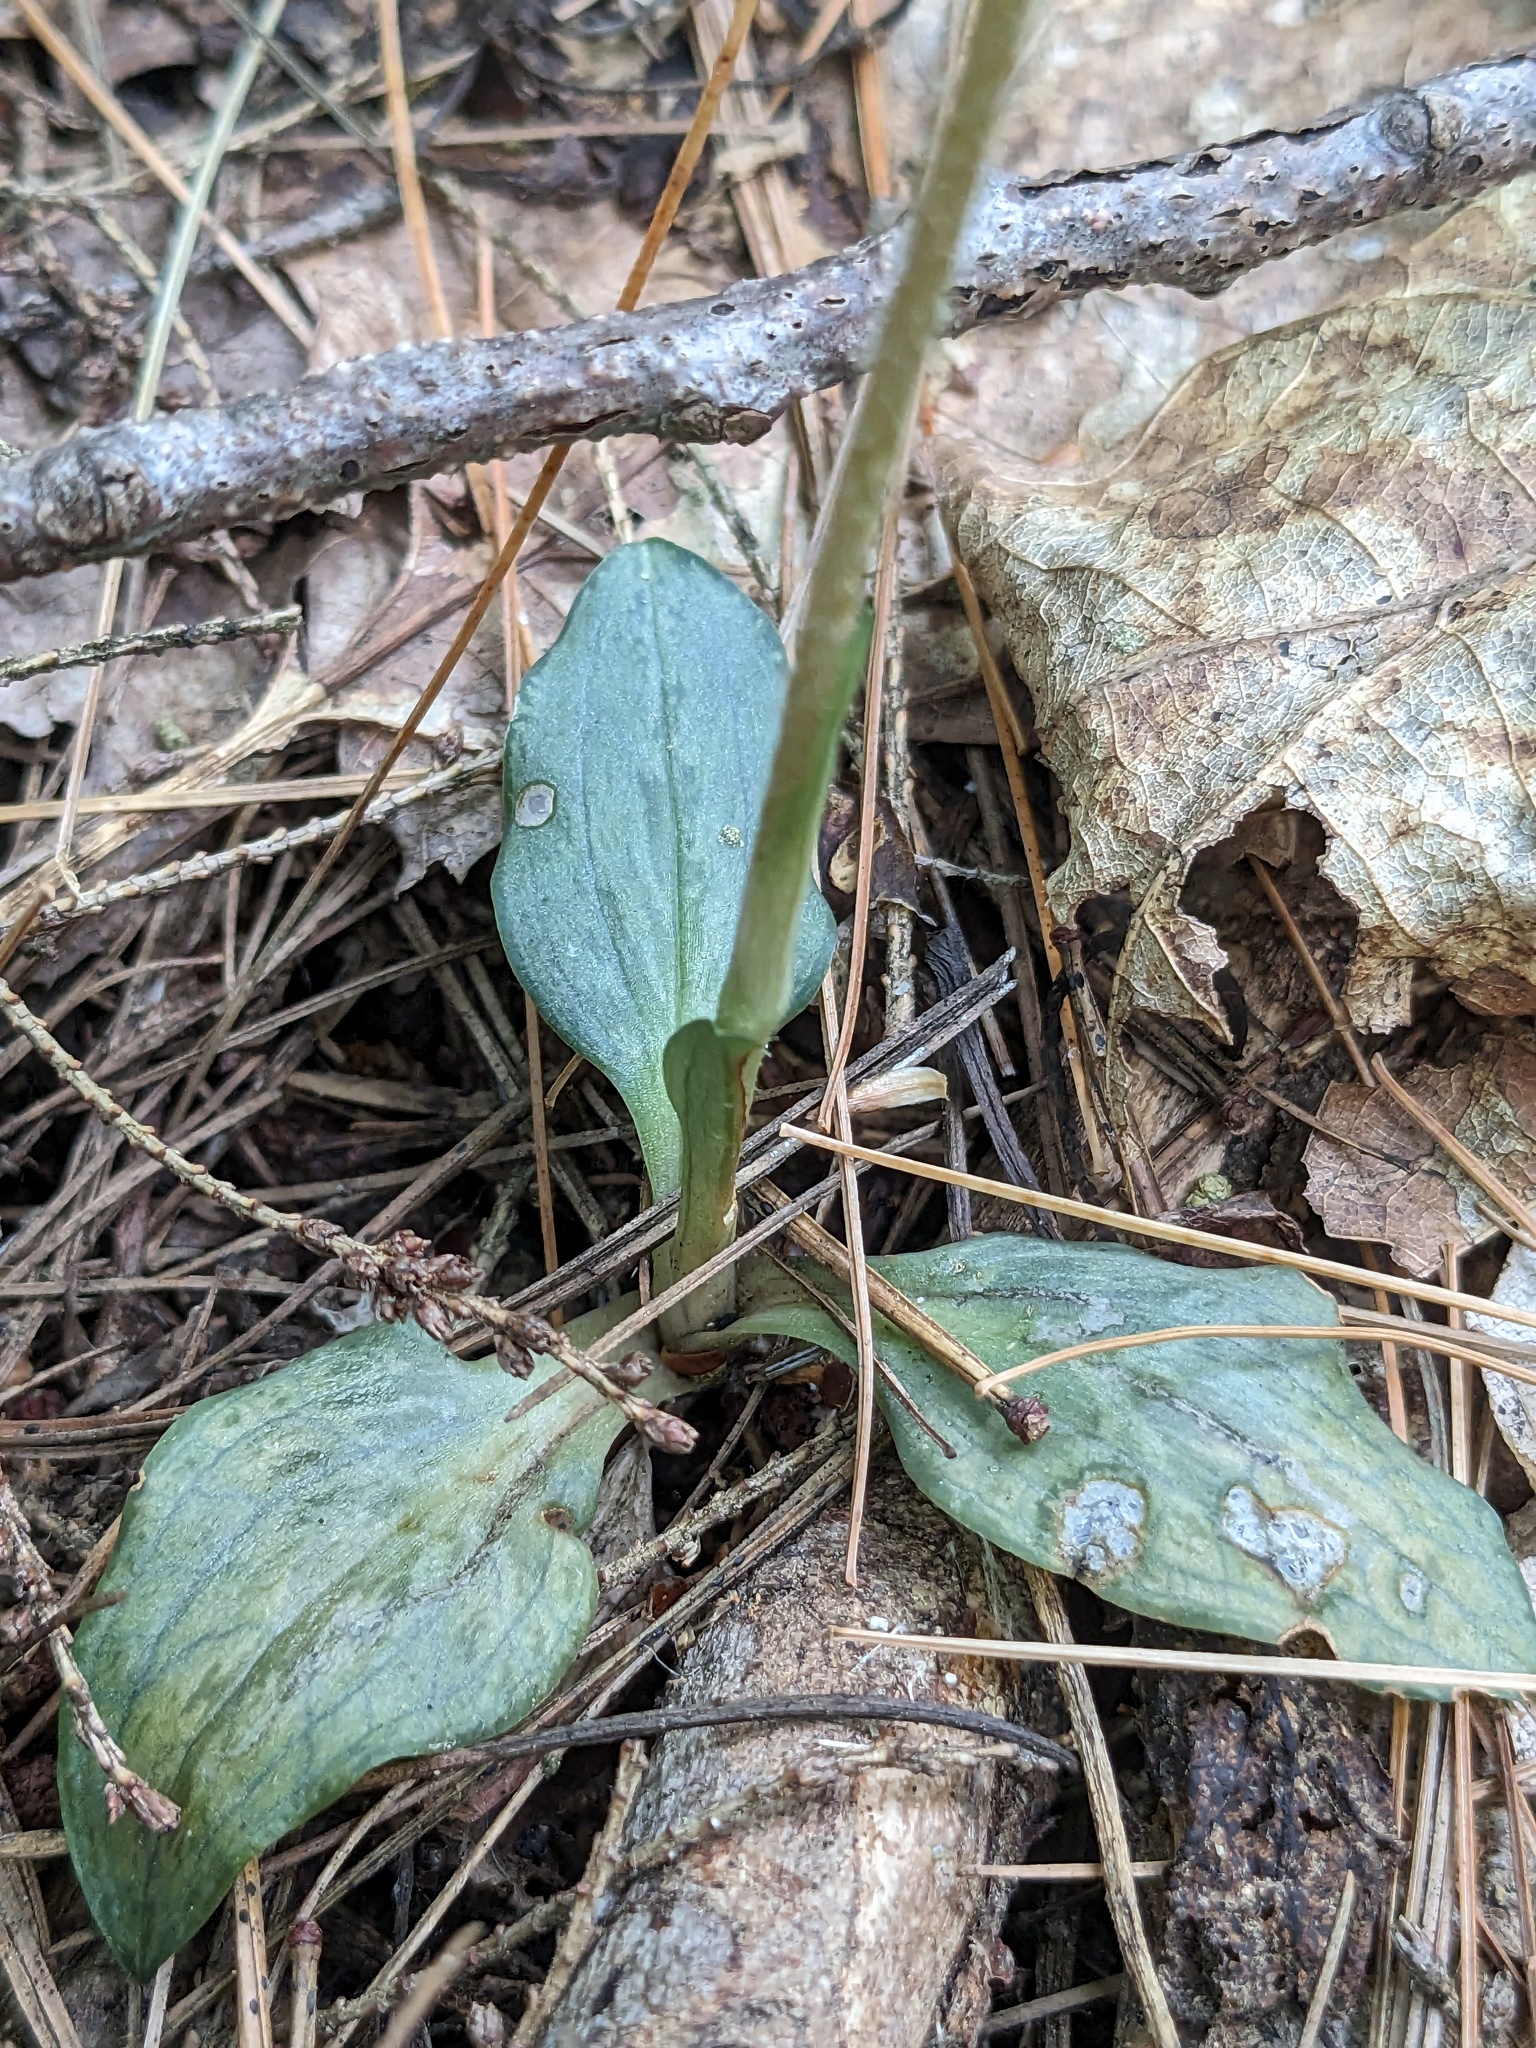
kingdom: Plantae
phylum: Tracheophyta
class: Liliopsida
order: Asparagales
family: Orchidaceae
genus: Goodyera
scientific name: Goodyera tesselata
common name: Checkered rattlesnake-plantain
